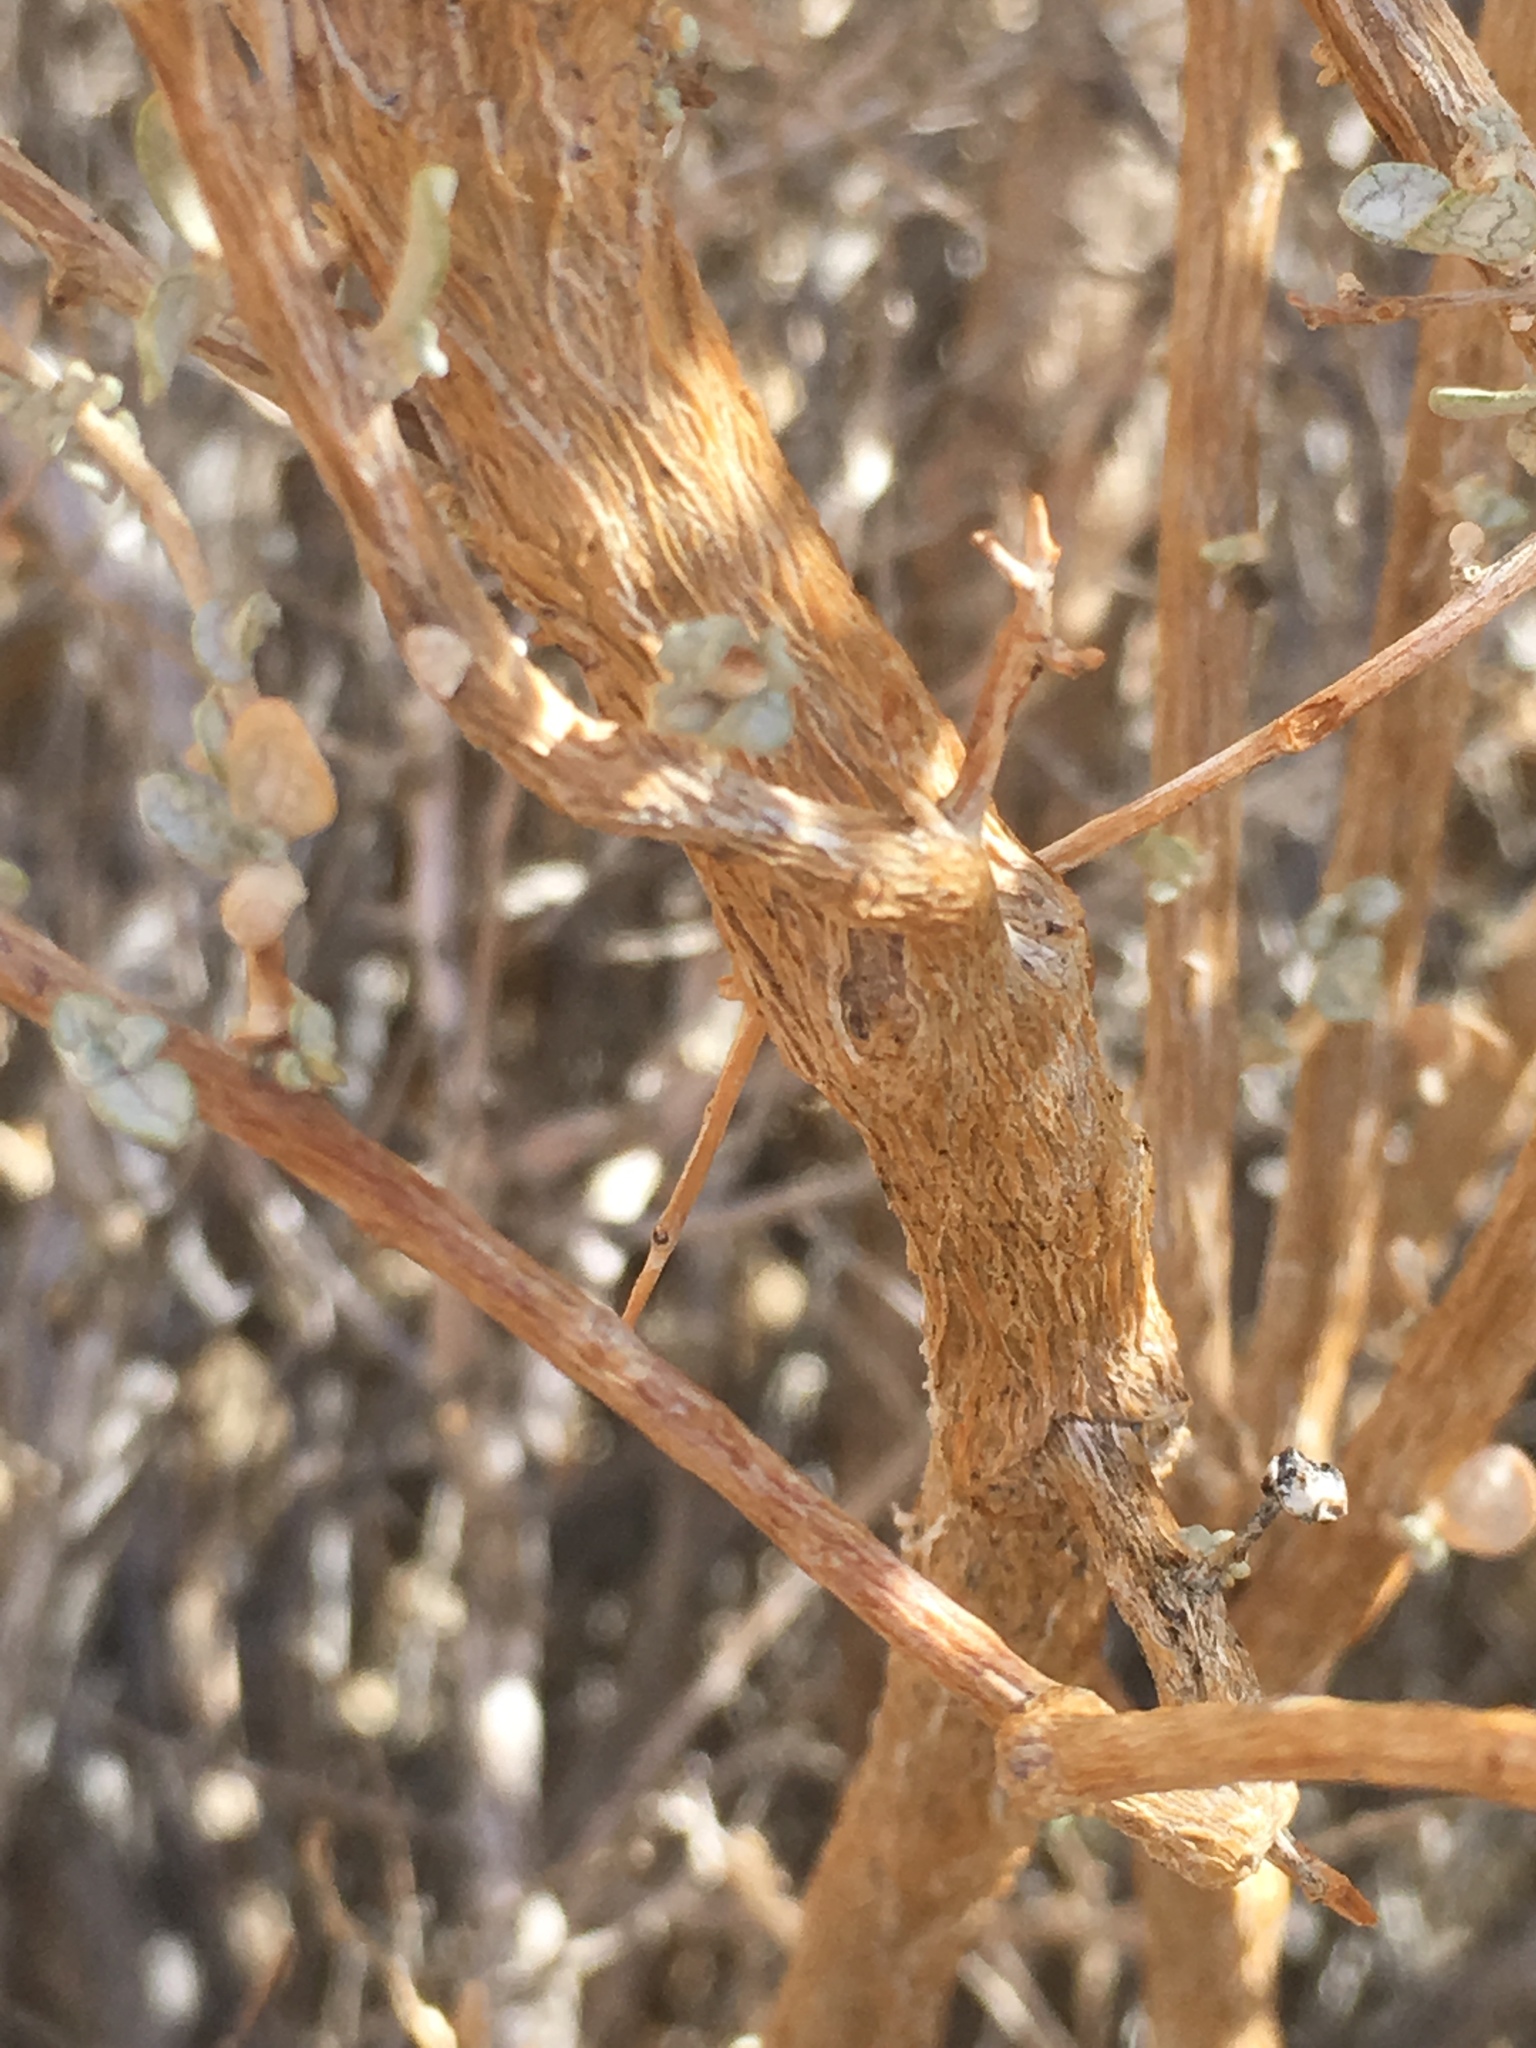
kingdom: Plantae
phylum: Tracheophyta
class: Magnoliopsida
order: Caryophyllales
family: Amaranthaceae
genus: Atriplex
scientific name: Atriplex polycarpa
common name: Desert saltbush
